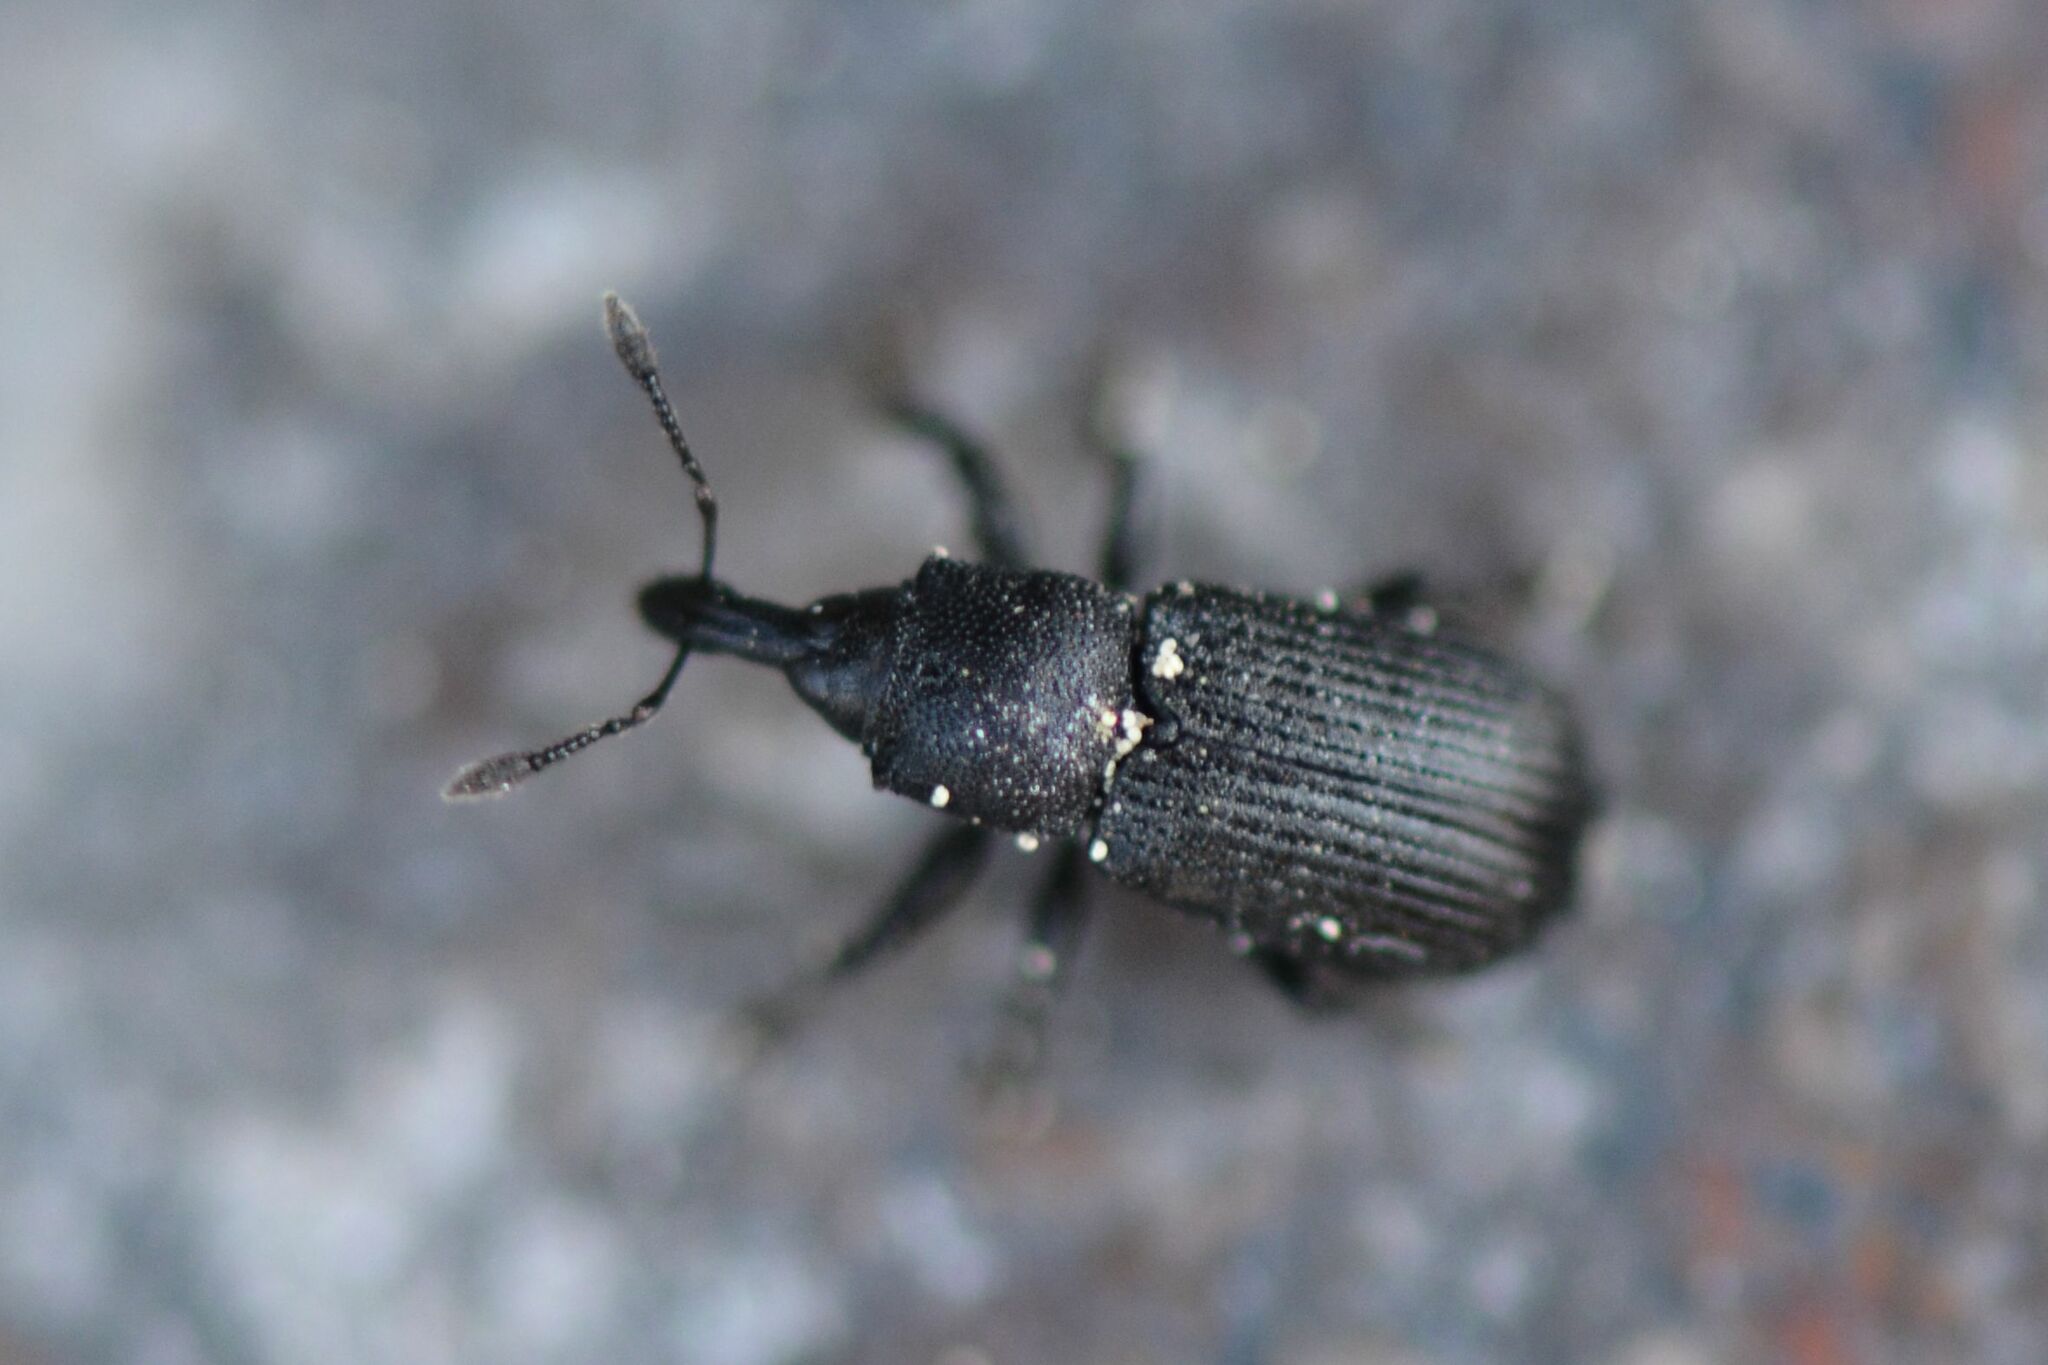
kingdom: Animalia
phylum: Arthropoda
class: Insecta
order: Coleoptera
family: Curculionidae
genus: Magdalis
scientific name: Magdalis armigera
